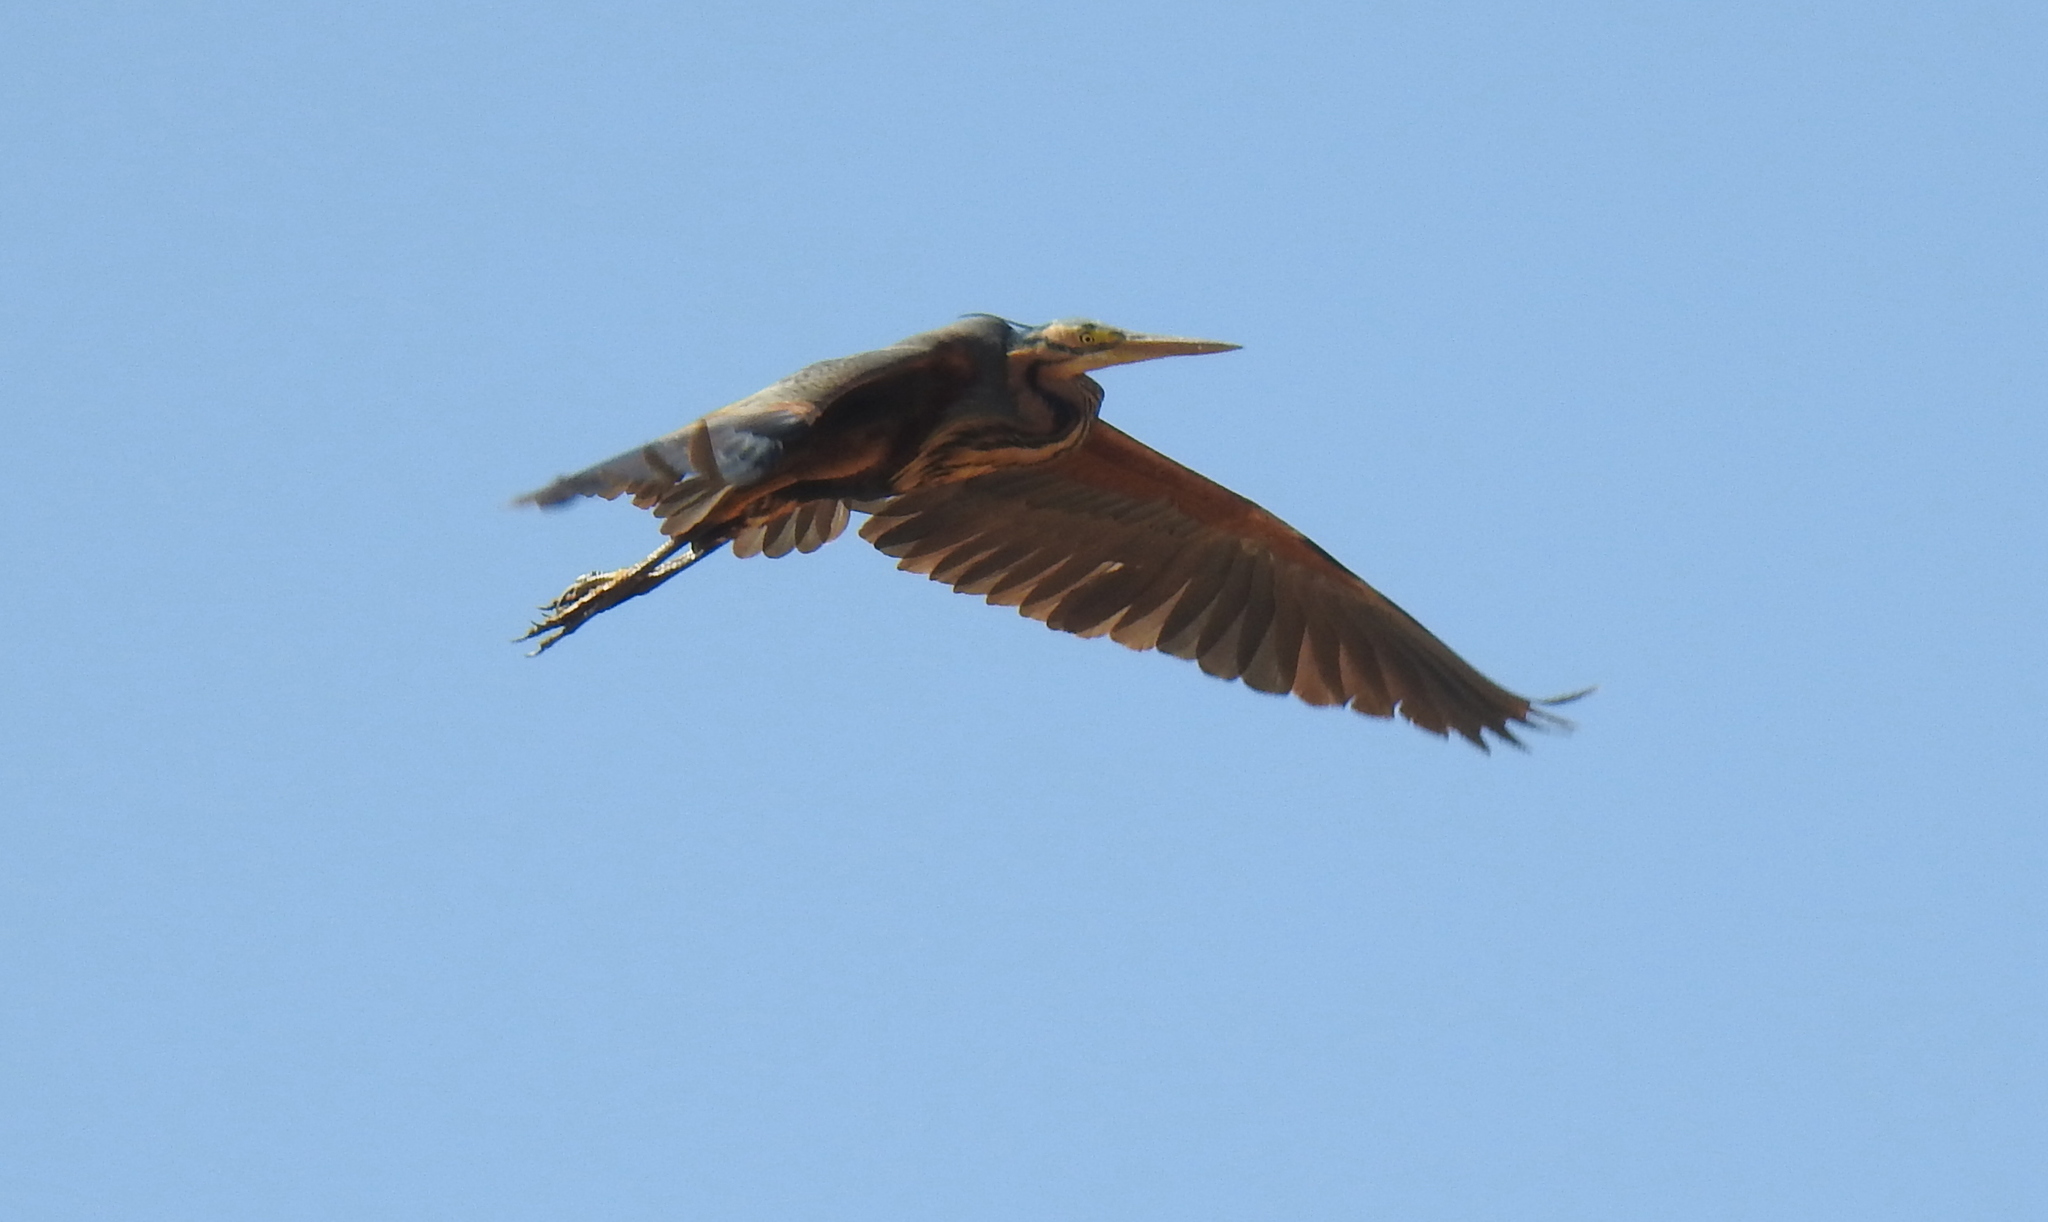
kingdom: Animalia
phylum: Chordata
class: Aves
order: Pelecaniformes
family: Ardeidae
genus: Ardea
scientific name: Ardea purpurea
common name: Purple heron
